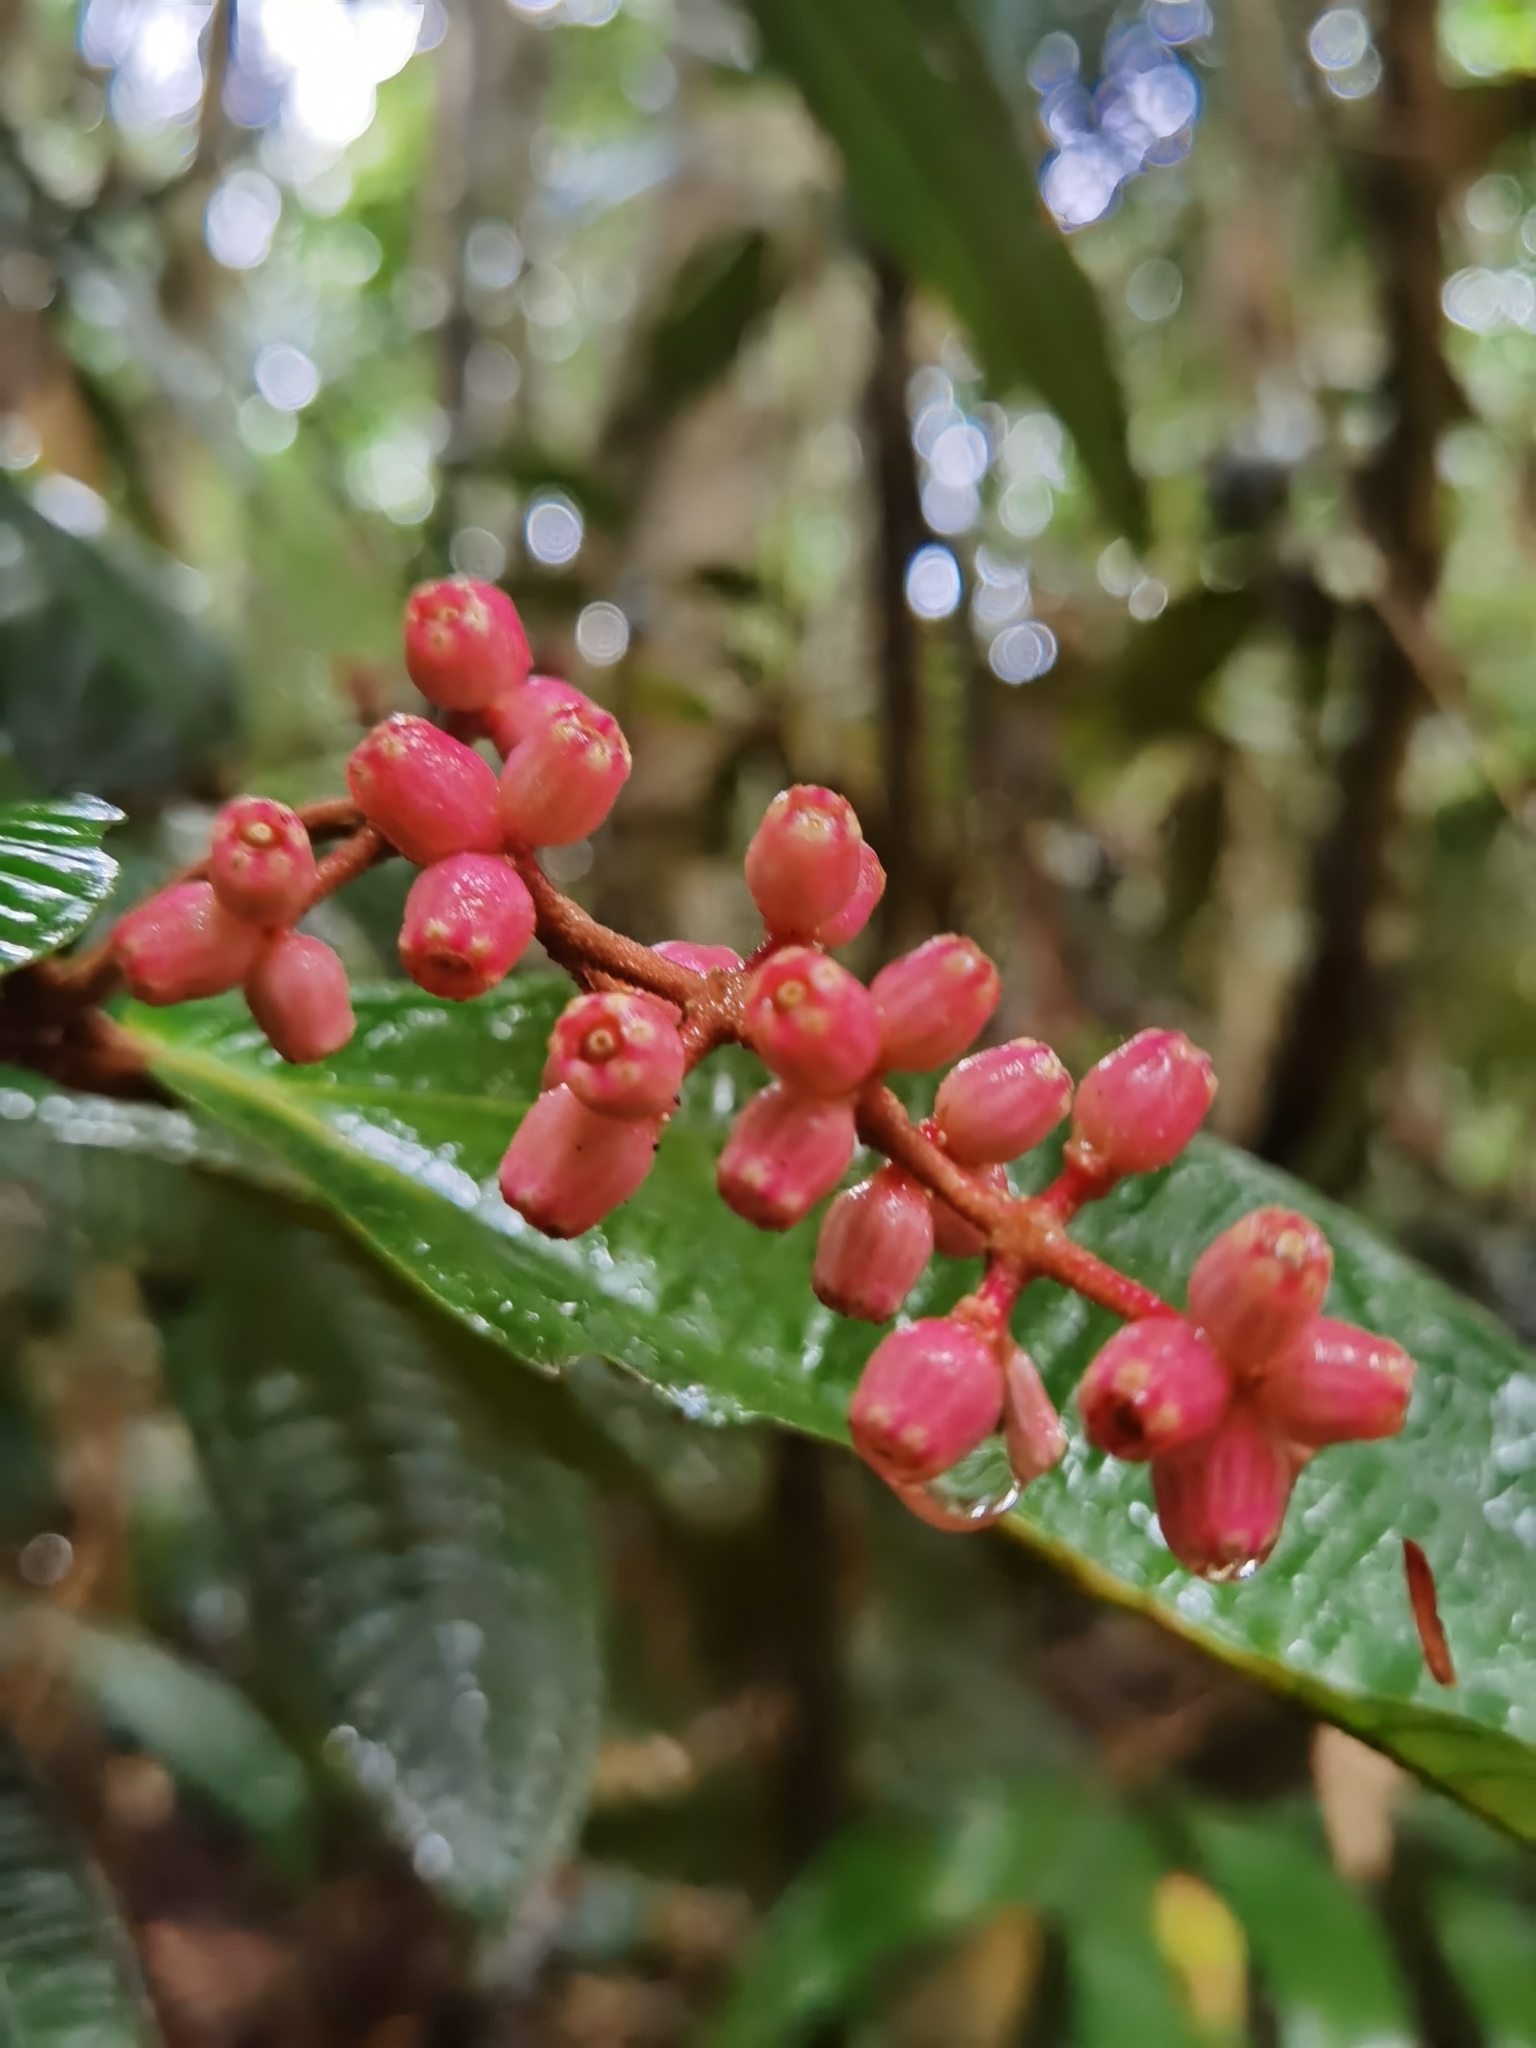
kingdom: Plantae
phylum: Tracheophyta
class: Magnoliopsida
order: Myrtales
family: Melastomataceae
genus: Miconia
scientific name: Miconia simplex
